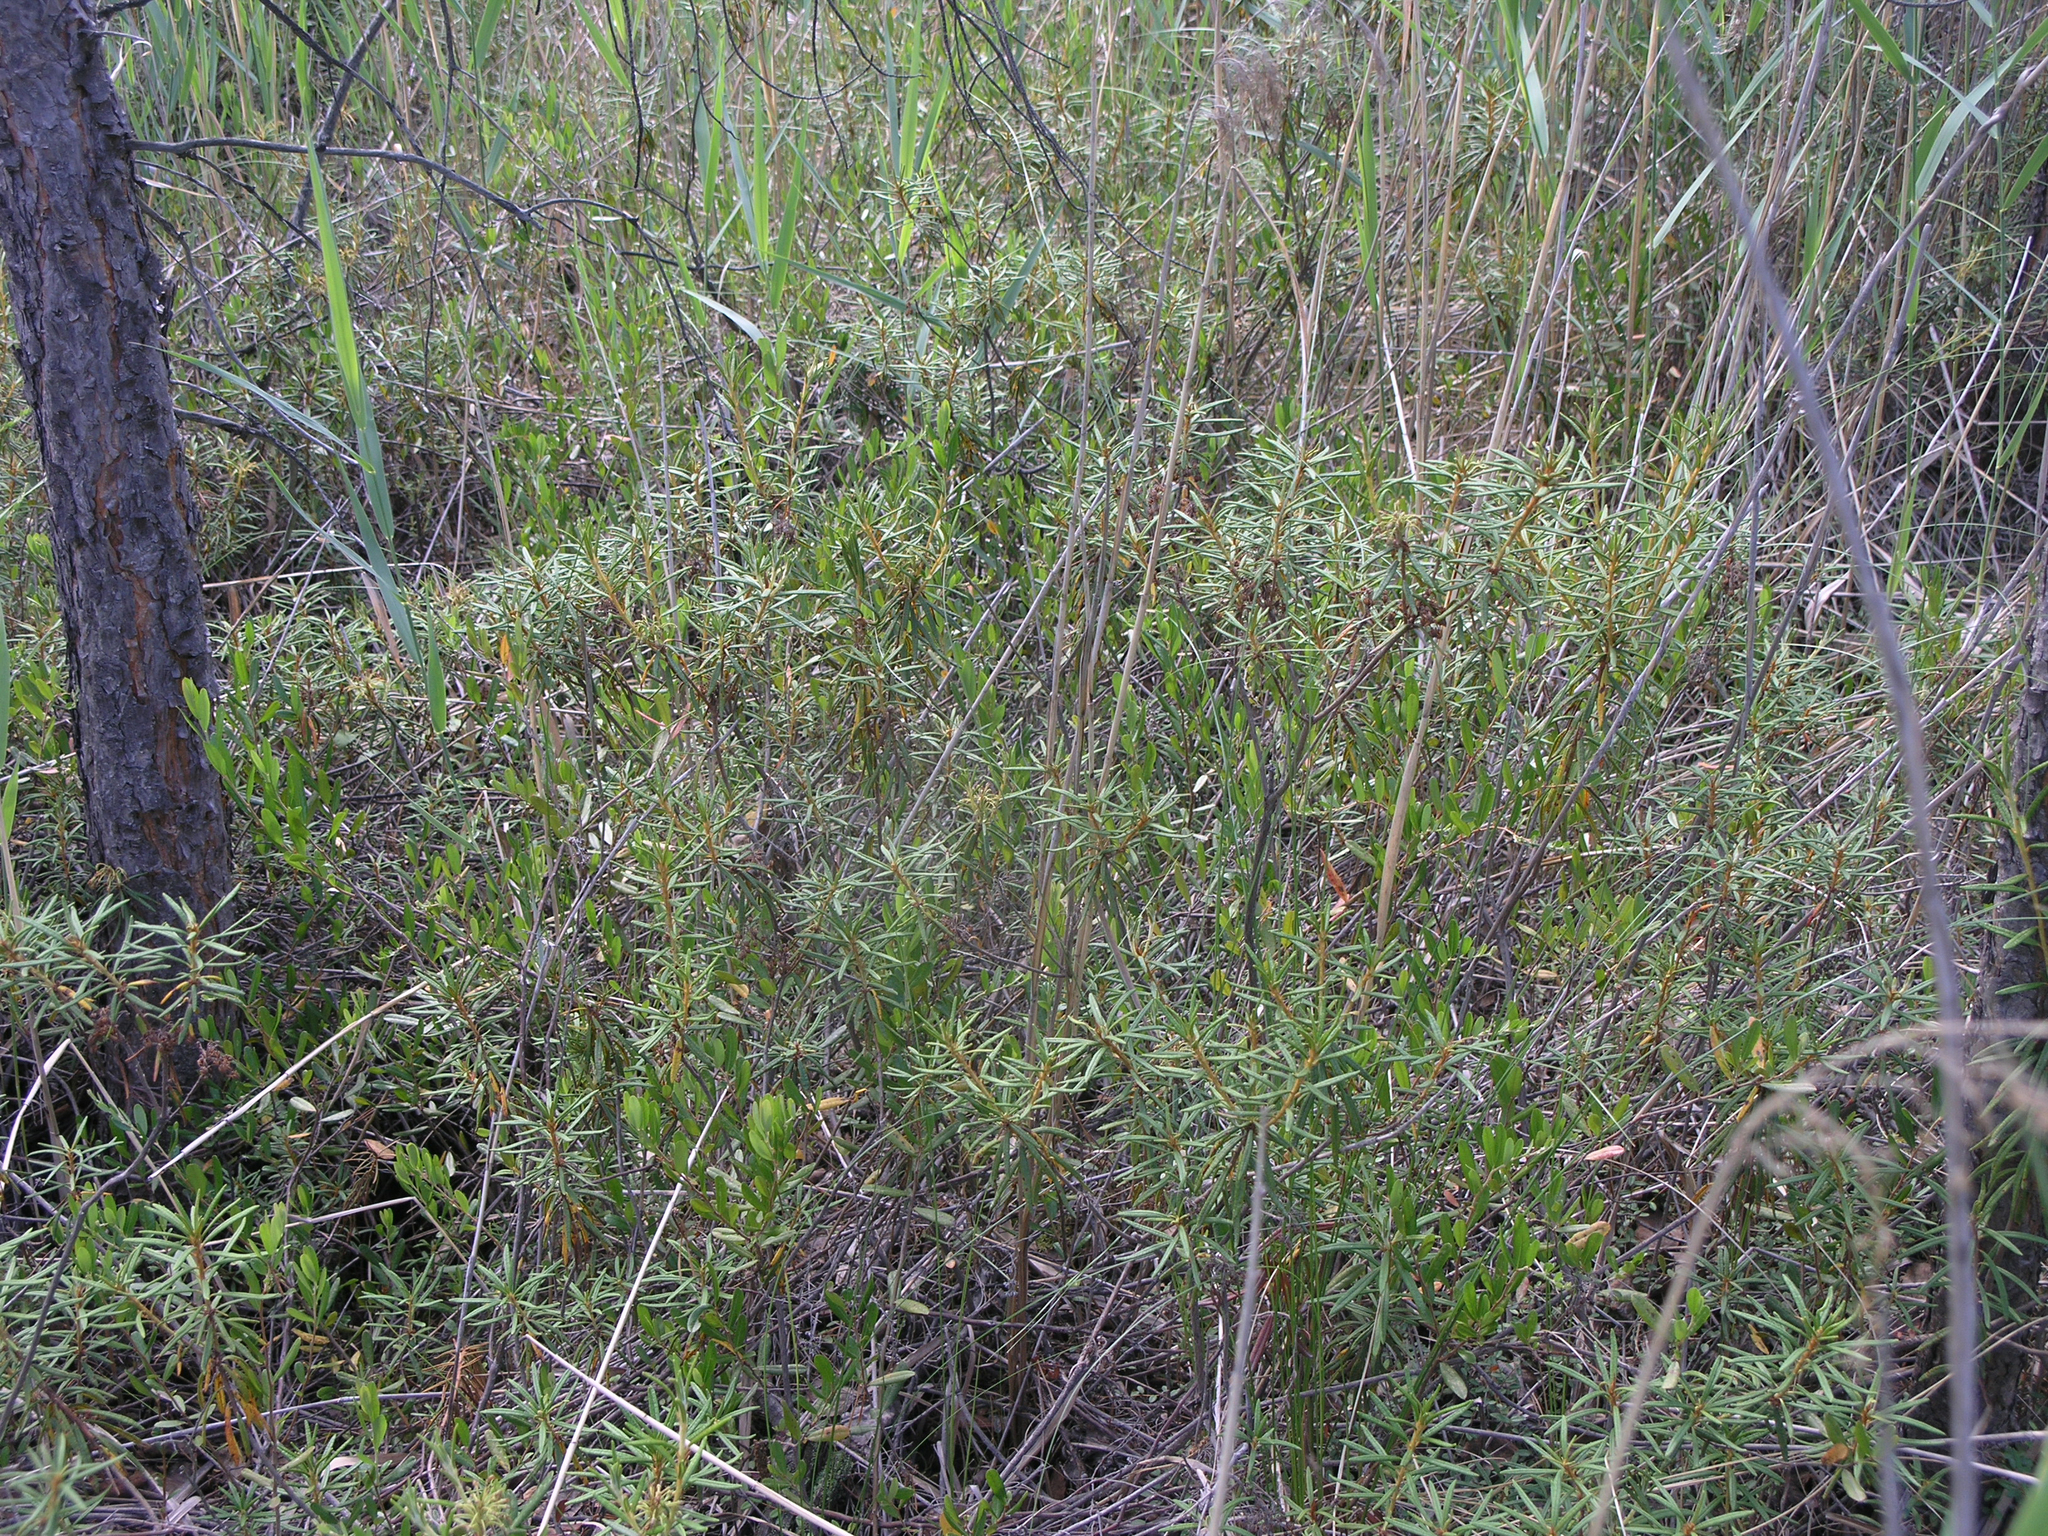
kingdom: Plantae
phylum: Tracheophyta
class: Magnoliopsida
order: Ericales
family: Ericaceae
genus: Rhododendron
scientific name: Rhododendron tomentosum
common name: Marsh labrador tea
